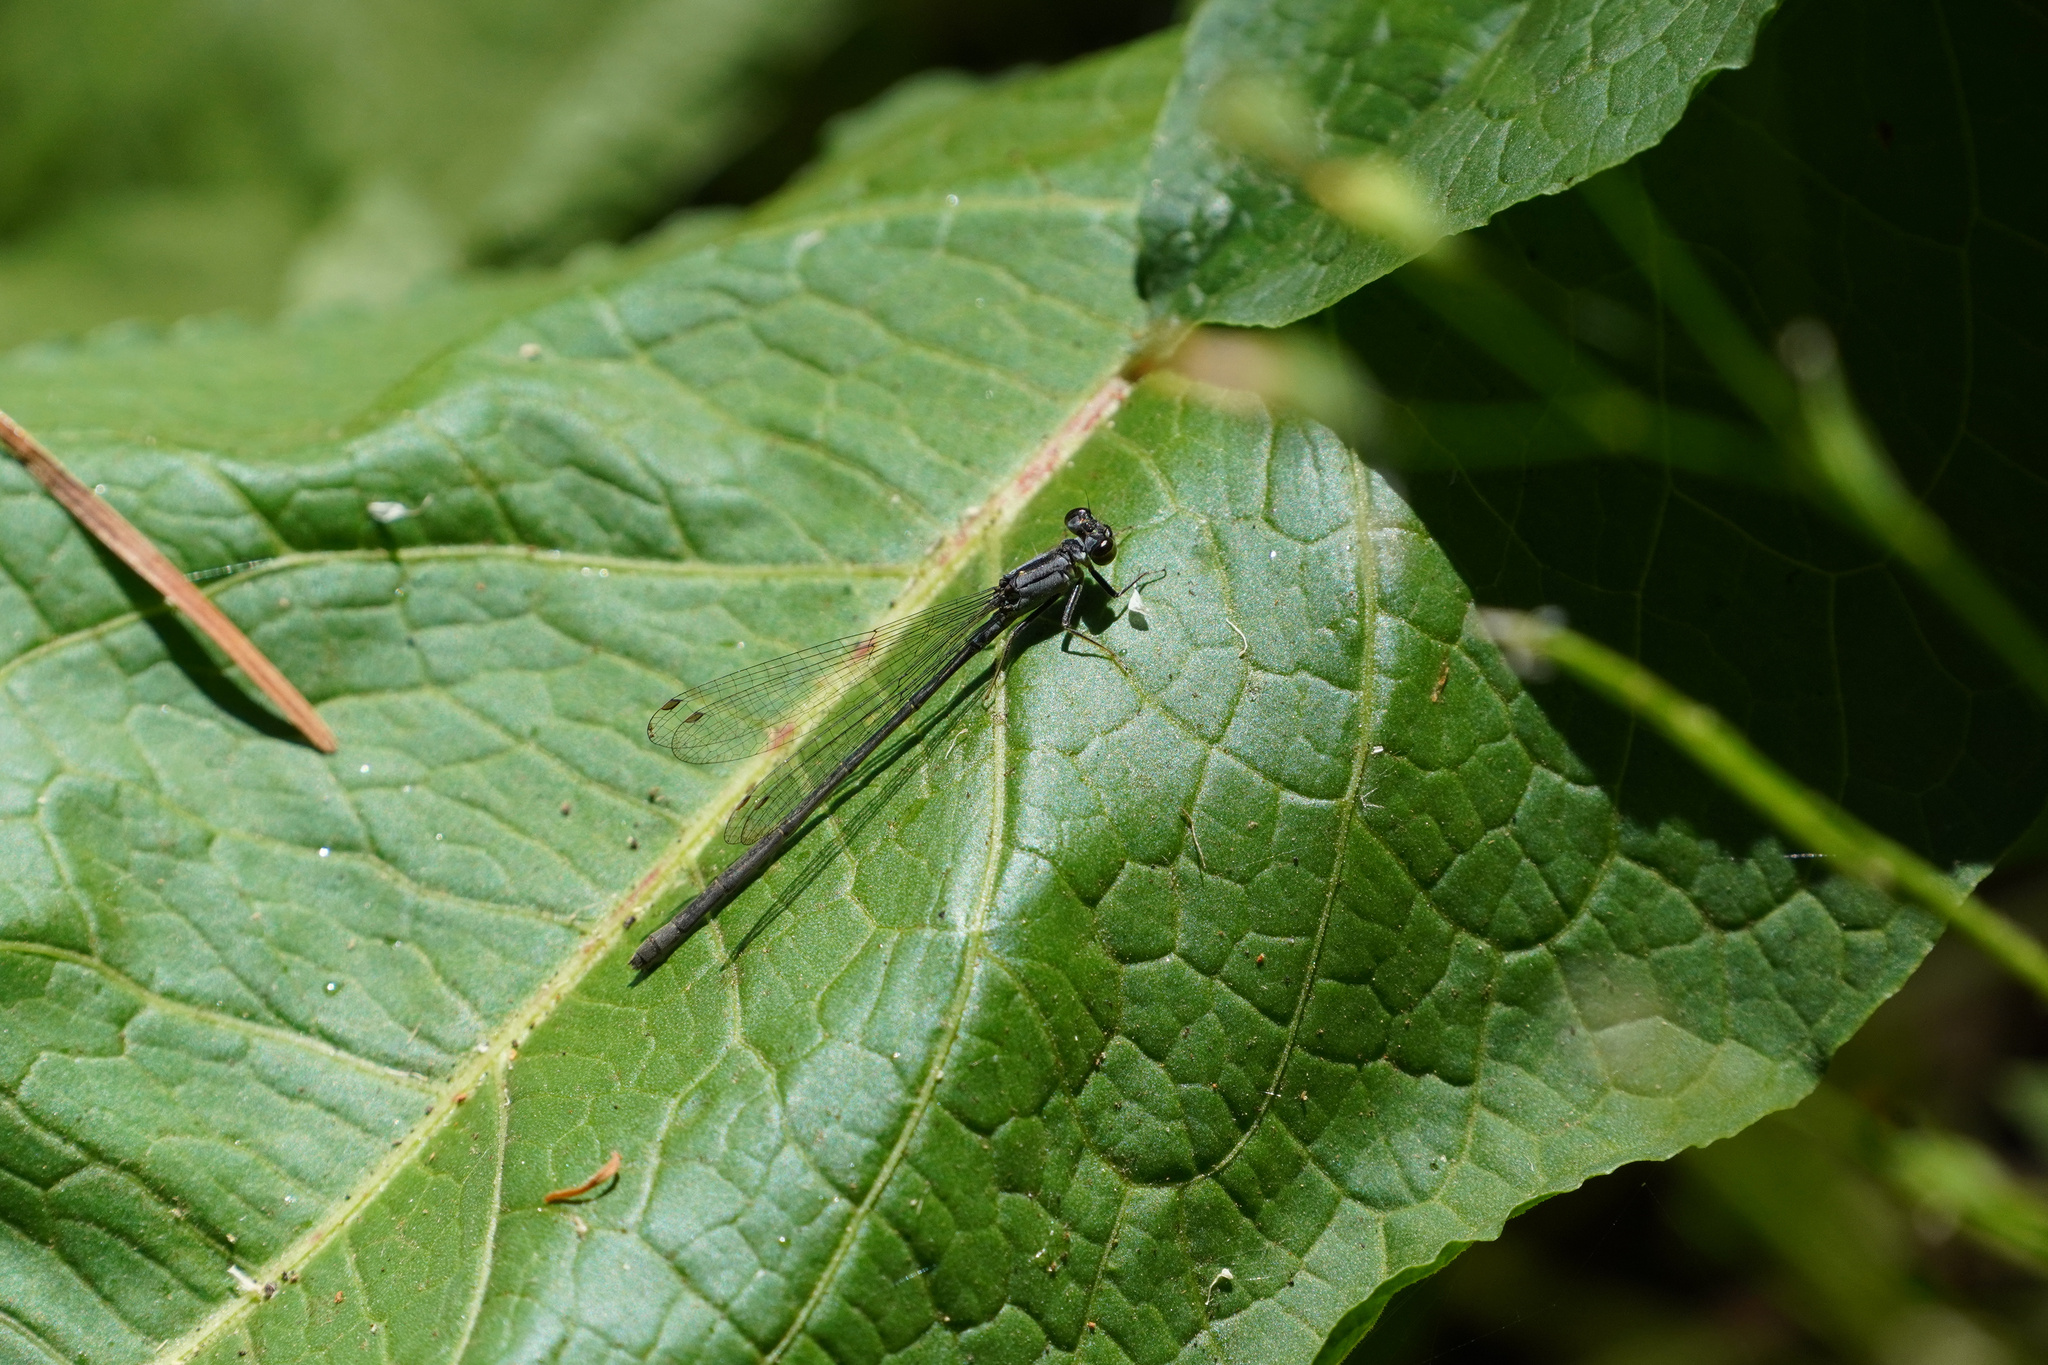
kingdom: Animalia
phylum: Arthropoda
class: Insecta
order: Odonata
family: Coenagrionidae
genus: Ischnura
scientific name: Ischnura cervula
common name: Pacific forktail
